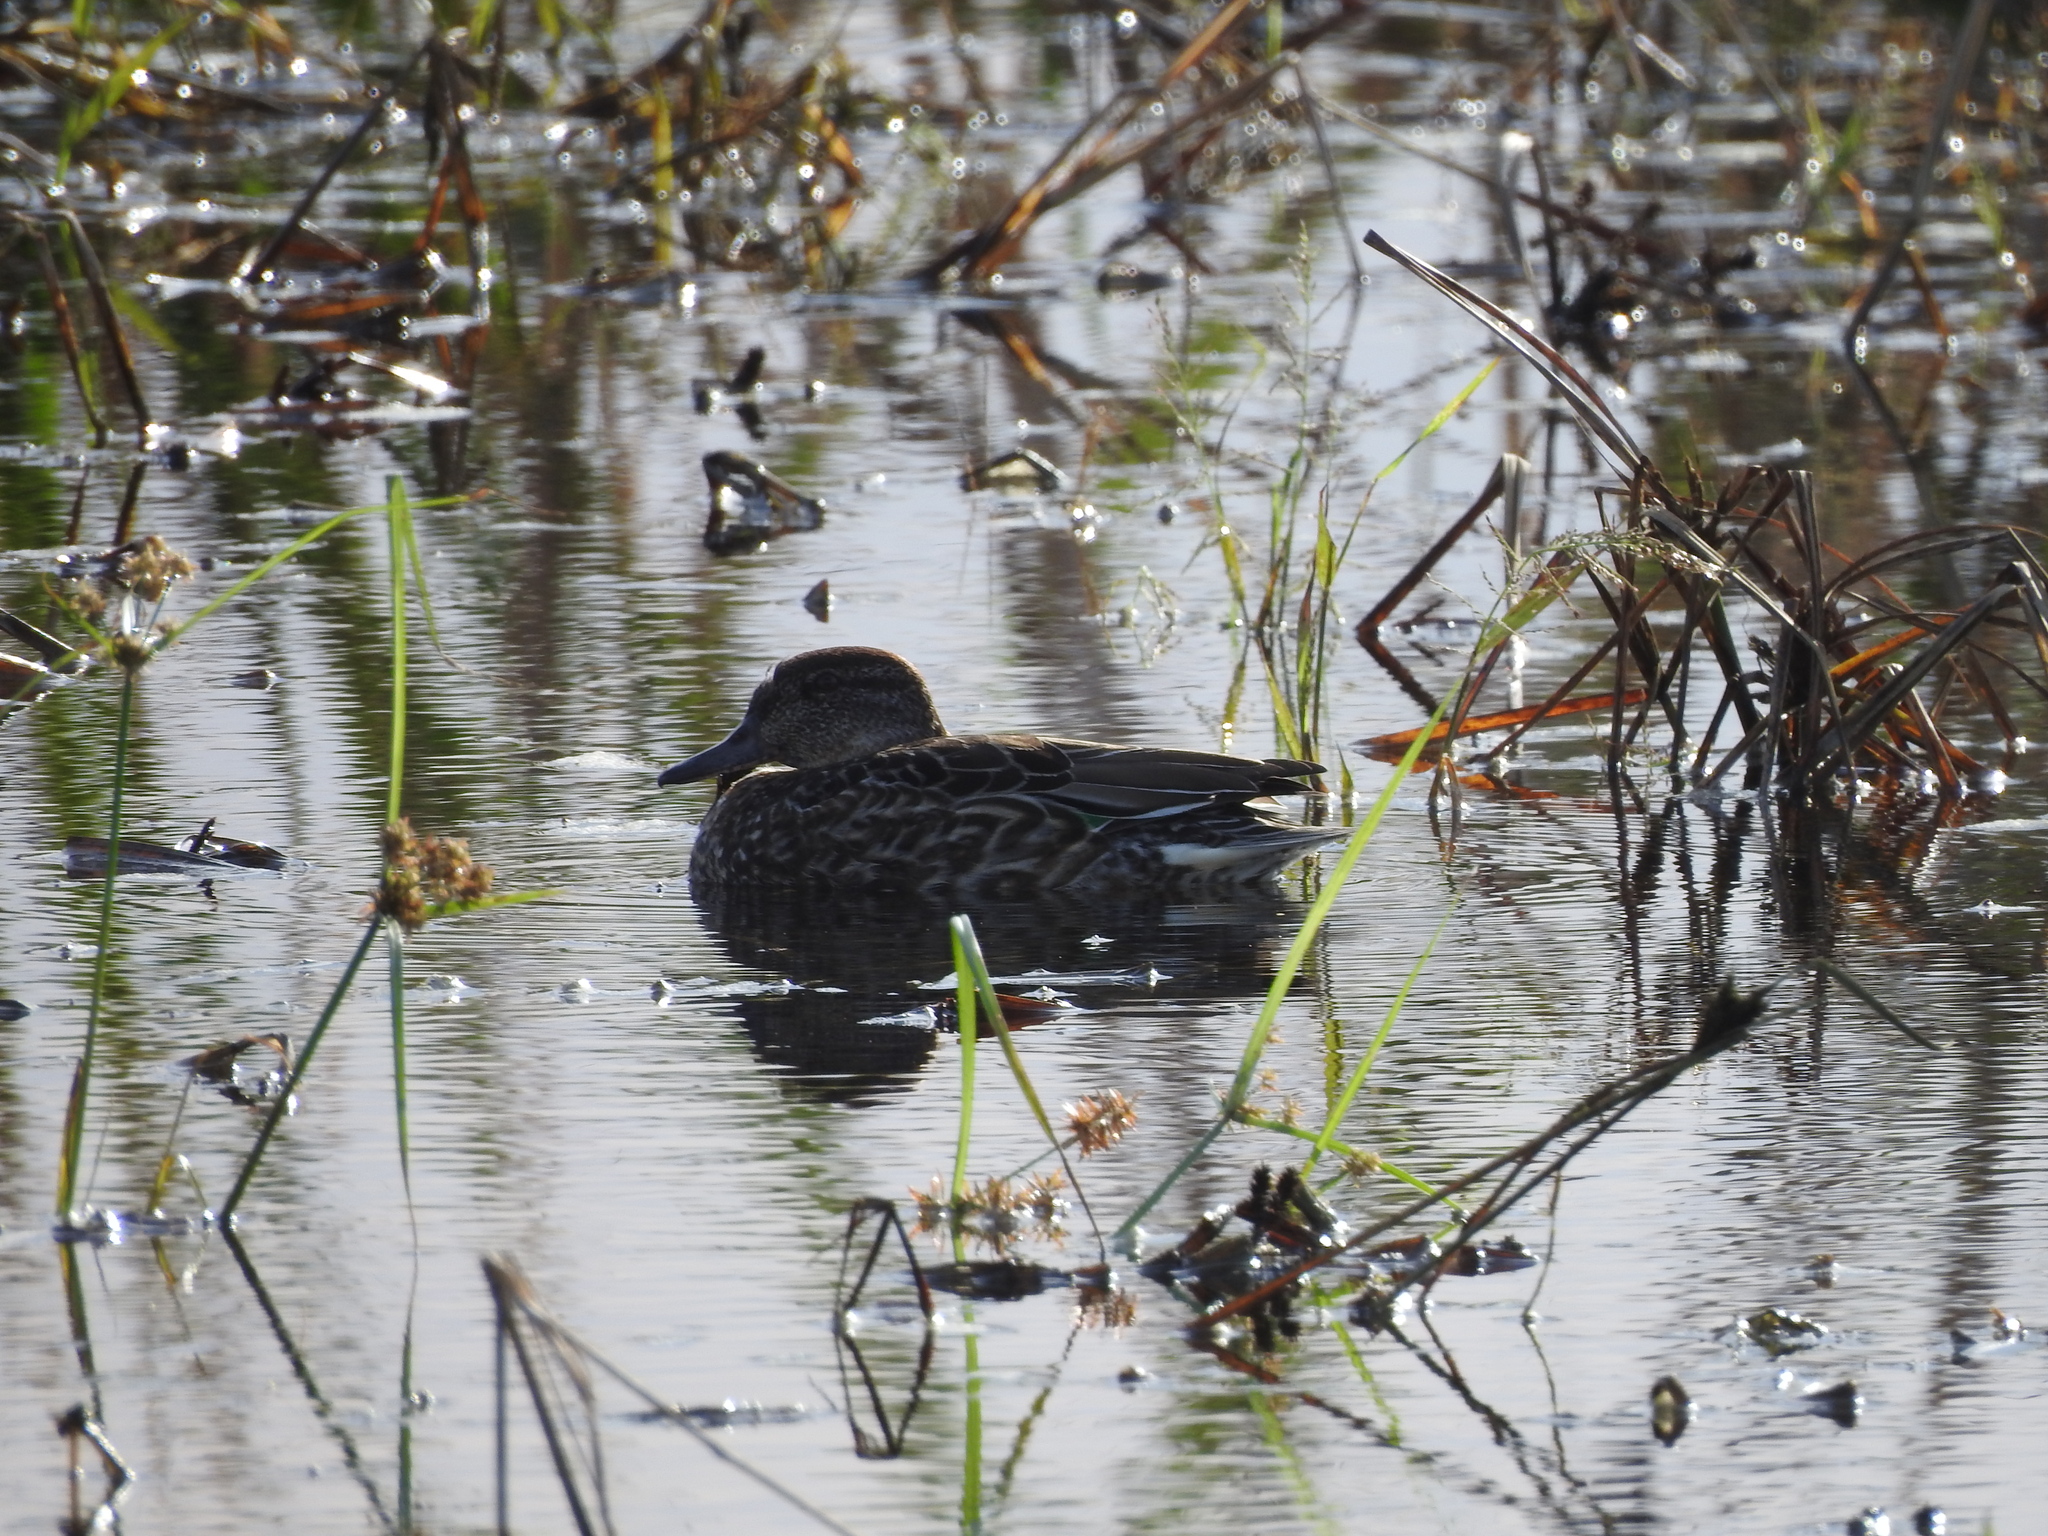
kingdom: Animalia
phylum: Chordata
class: Aves
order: Anseriformes
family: Anatidae
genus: Anas
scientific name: Anas crecca
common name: Eurasian teal
